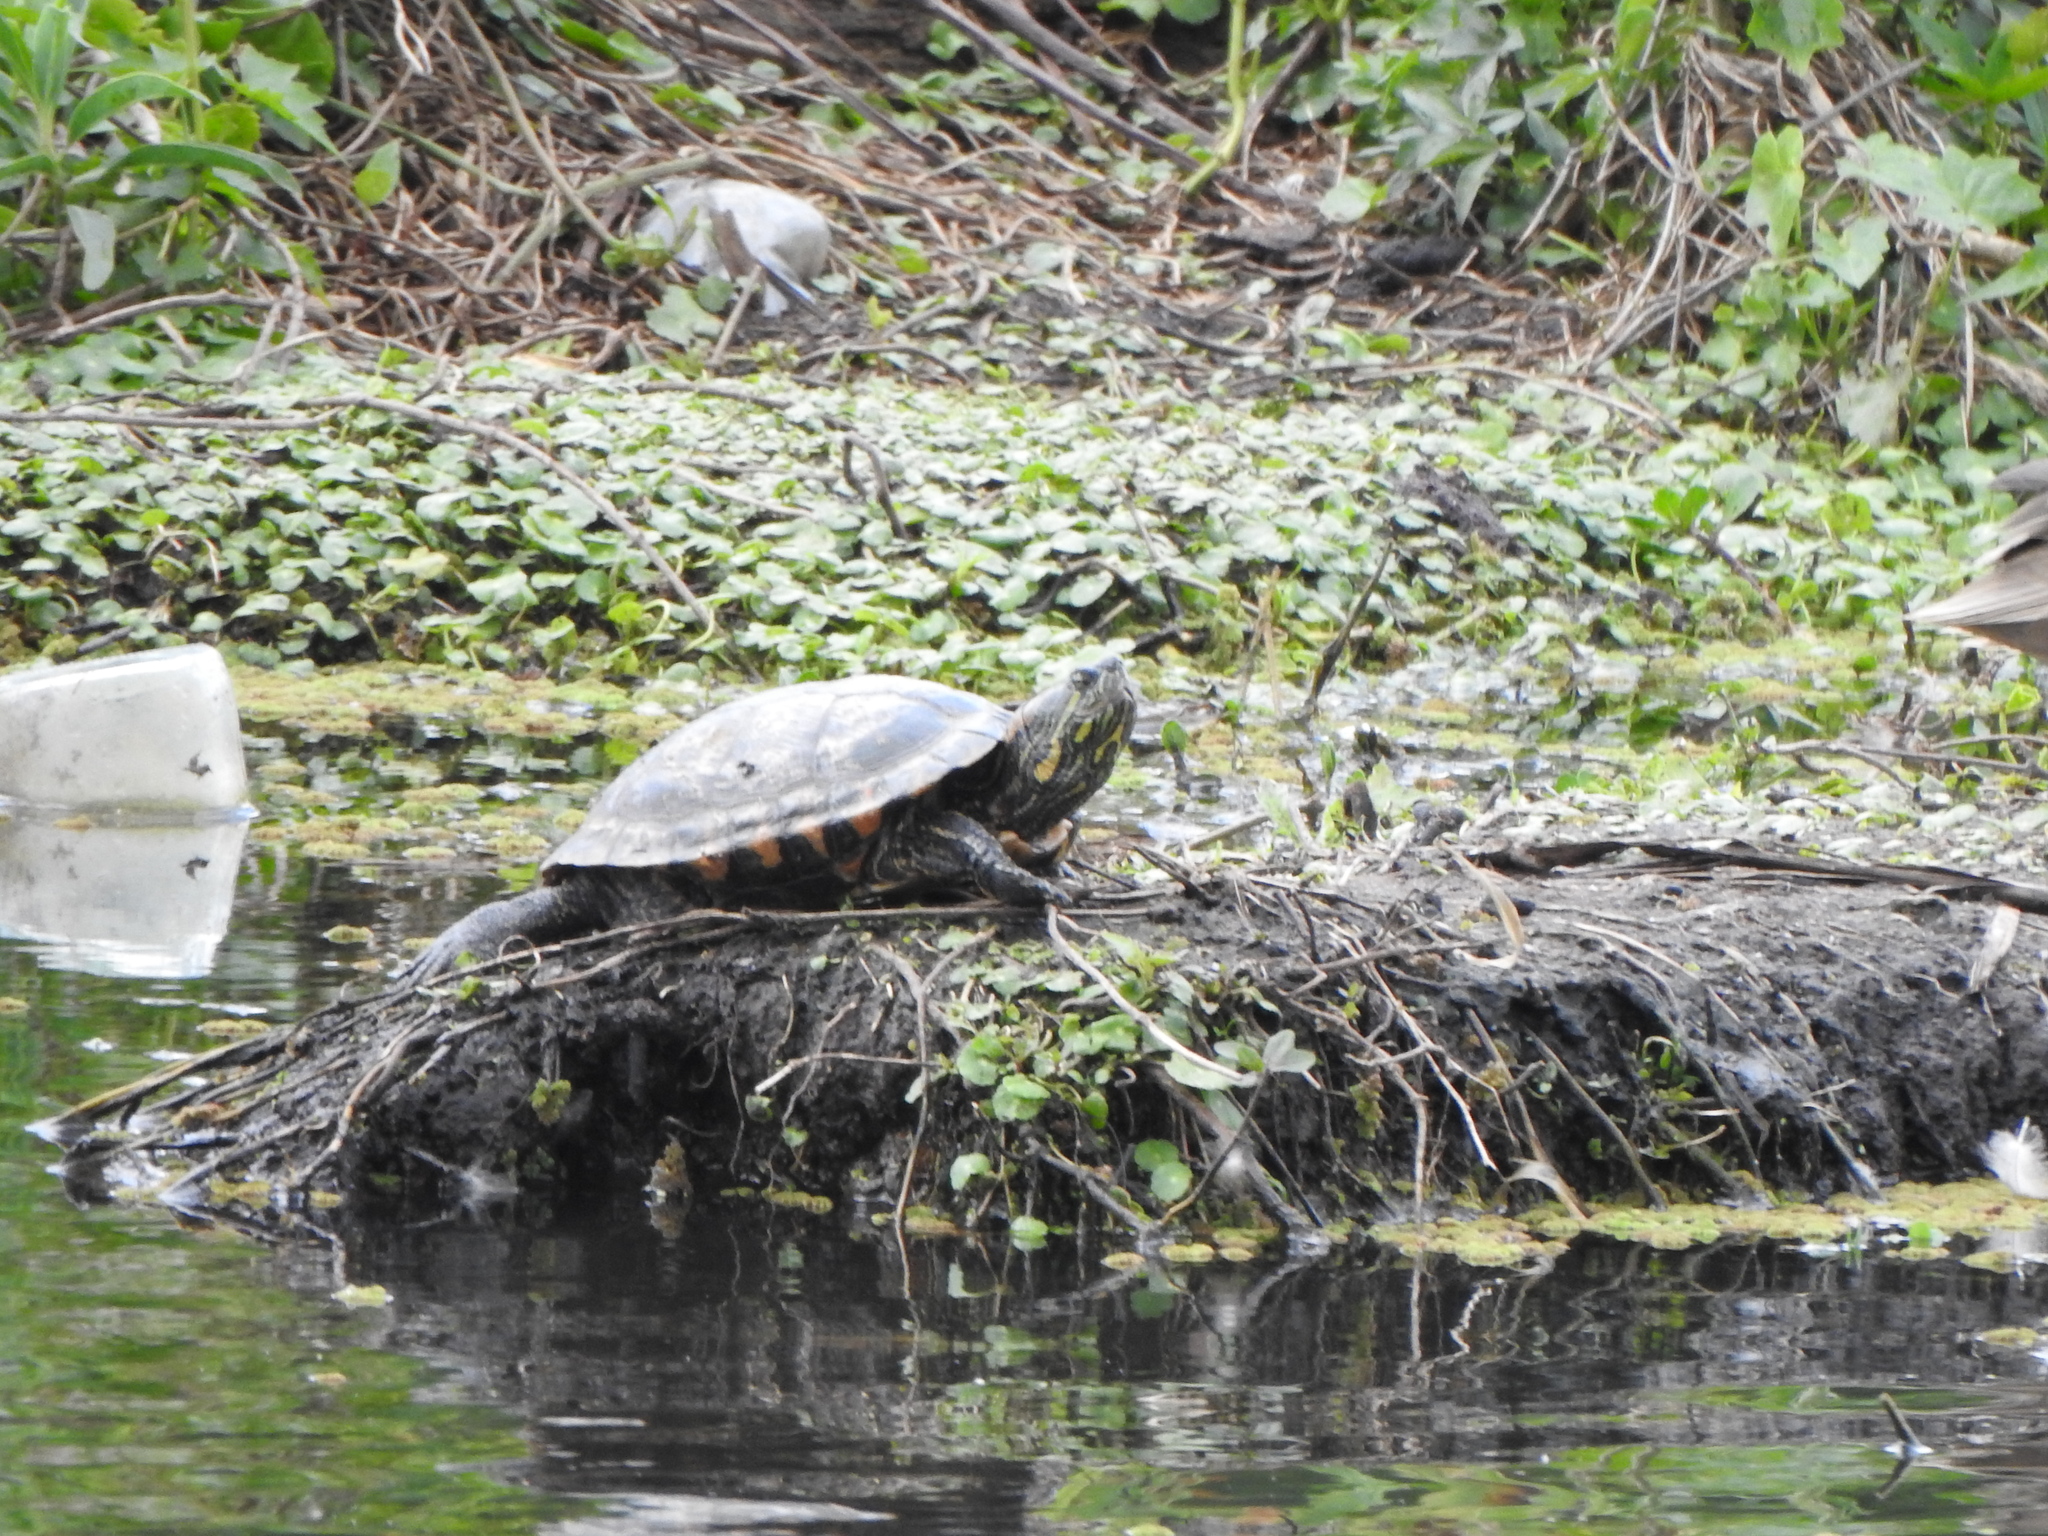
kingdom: Animalia
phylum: Chordata
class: Testudines
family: Emydidae
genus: Trachemys
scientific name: Trachemys dorbigni
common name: Black-bellied slider
